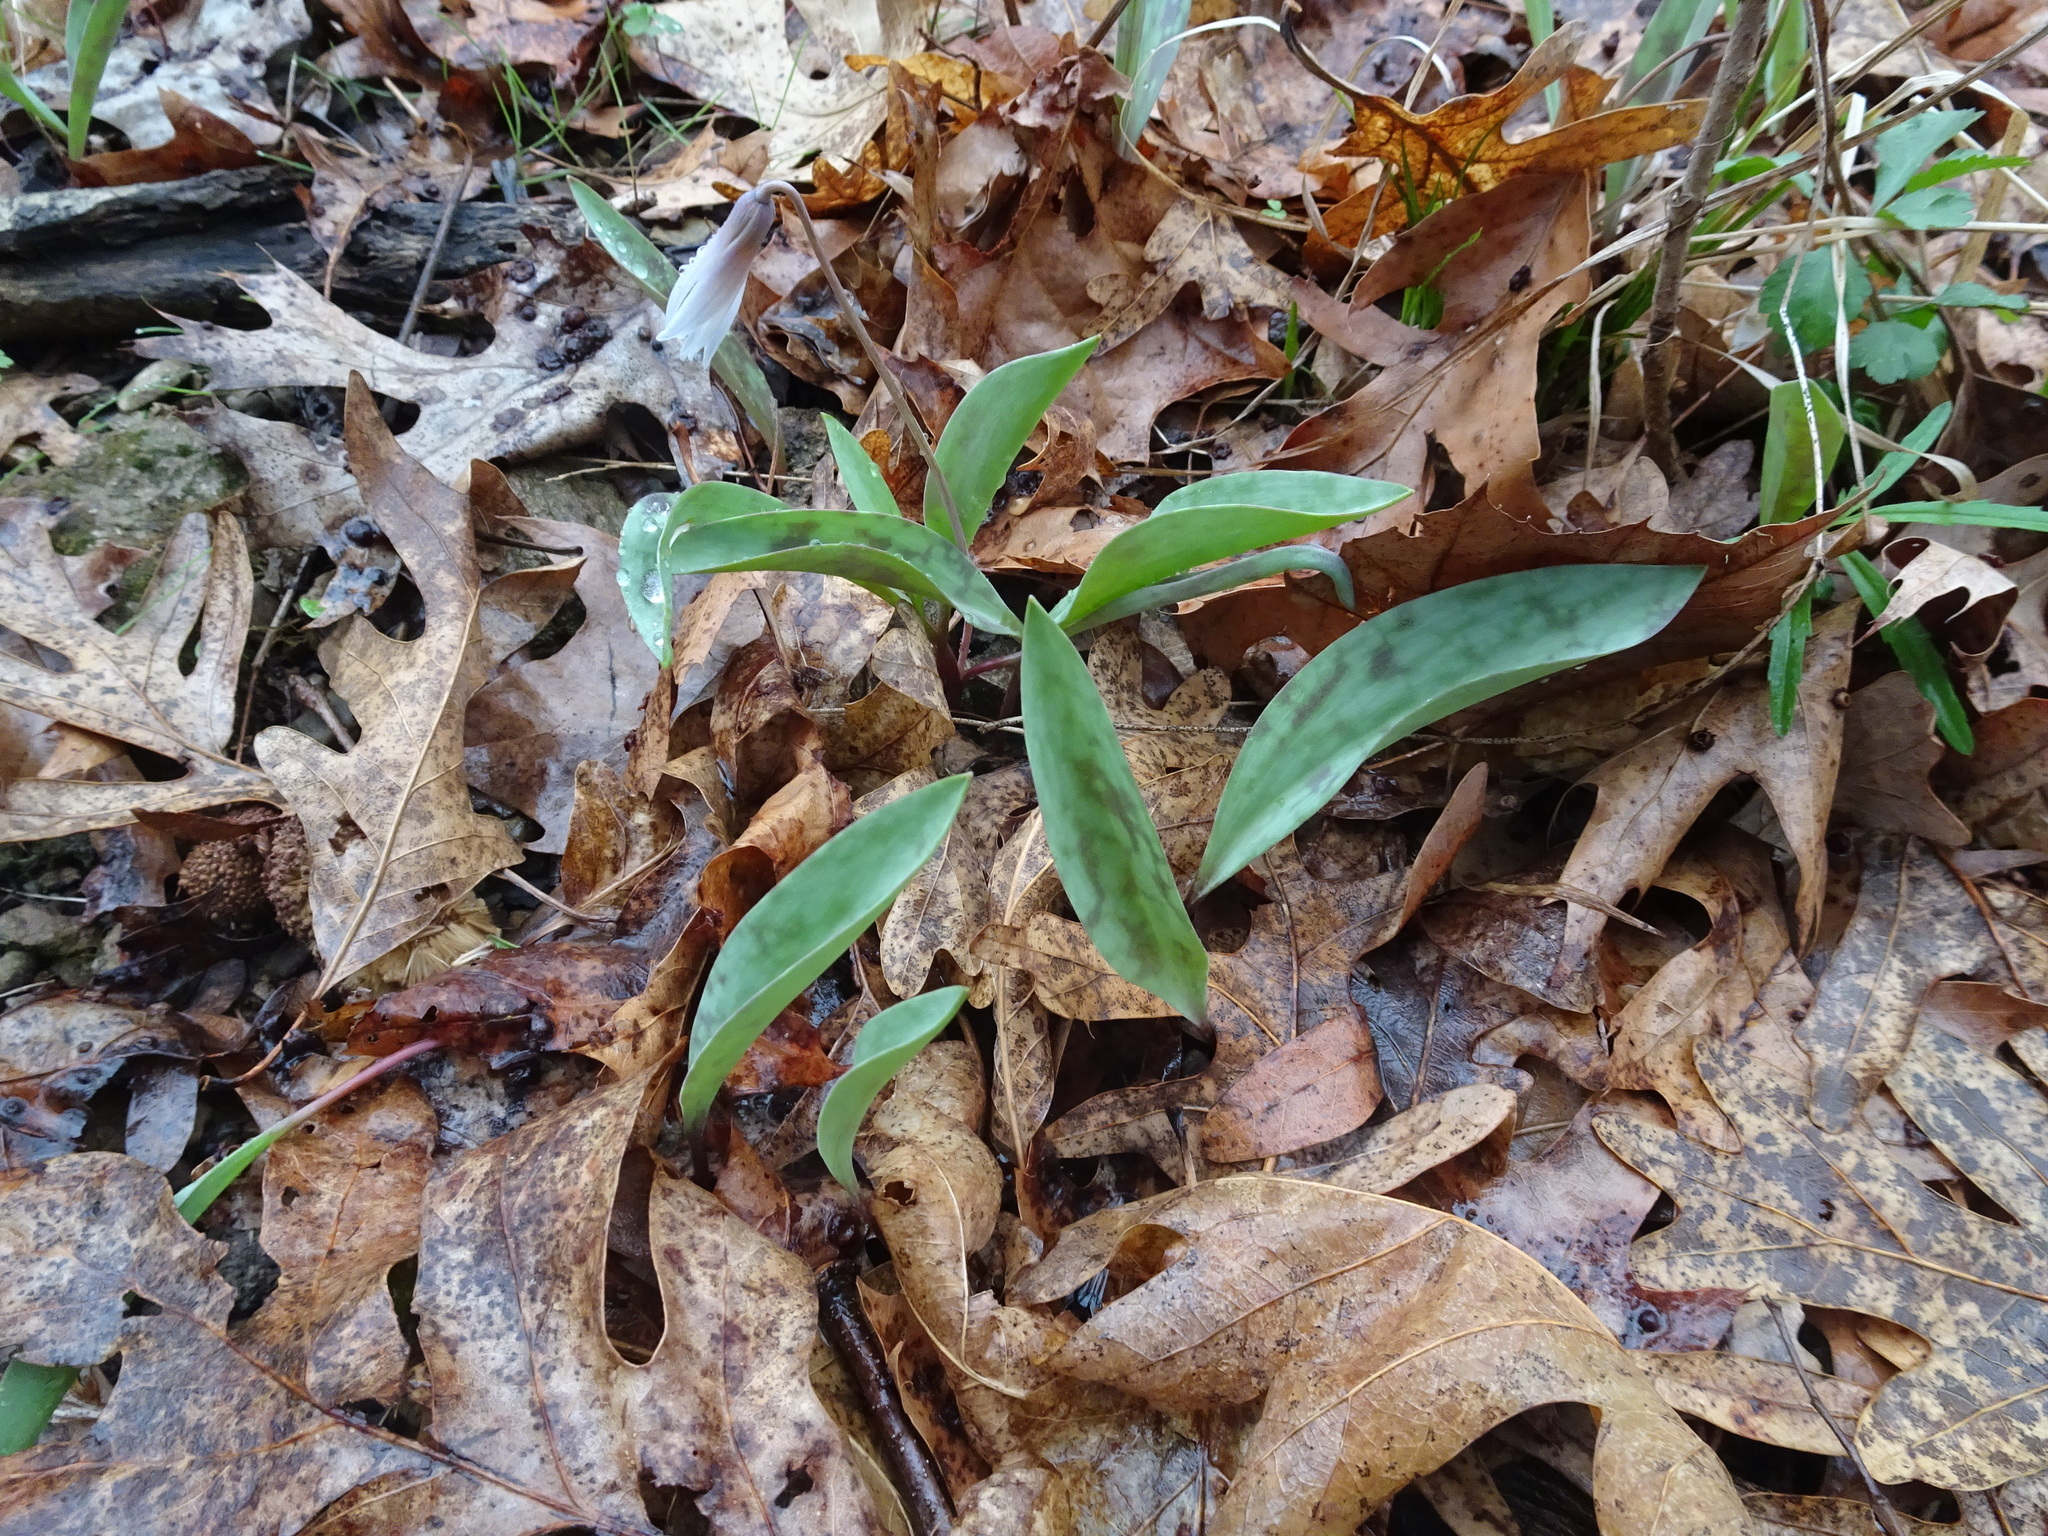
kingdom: Plantae
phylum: Tracheophyta
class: Liliopsida
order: Liliales
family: Liliaceae
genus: Erythronium
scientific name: Erythronium albidum
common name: White trout-lily
